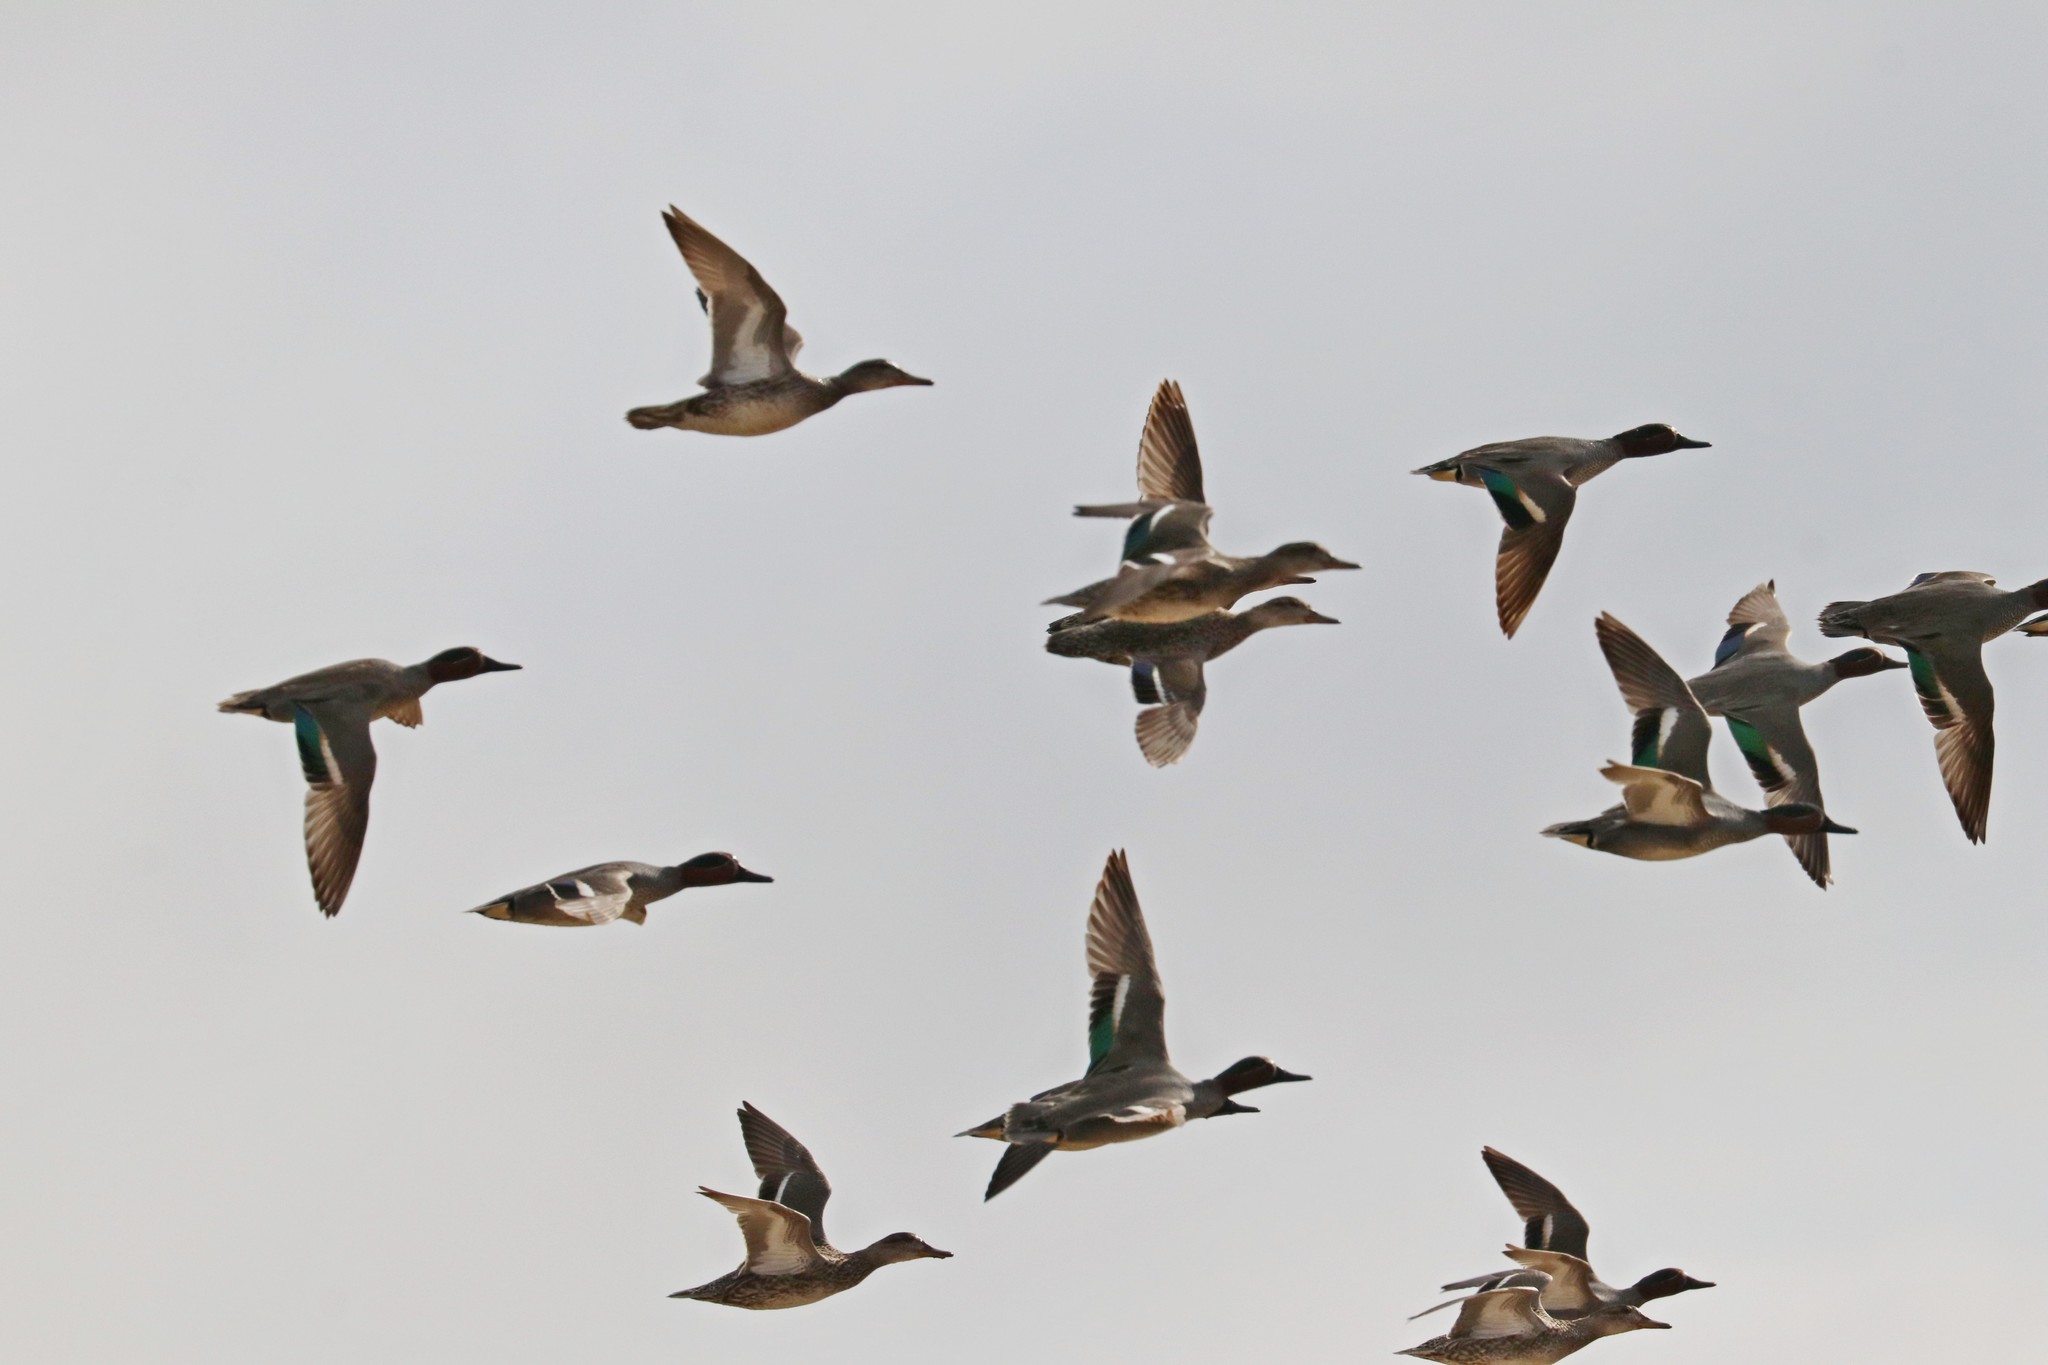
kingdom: Animalia
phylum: Chordata
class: Aves
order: Anseriformes
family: Anatidae
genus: Anas
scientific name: Anas crecca
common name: Eurasian teal
